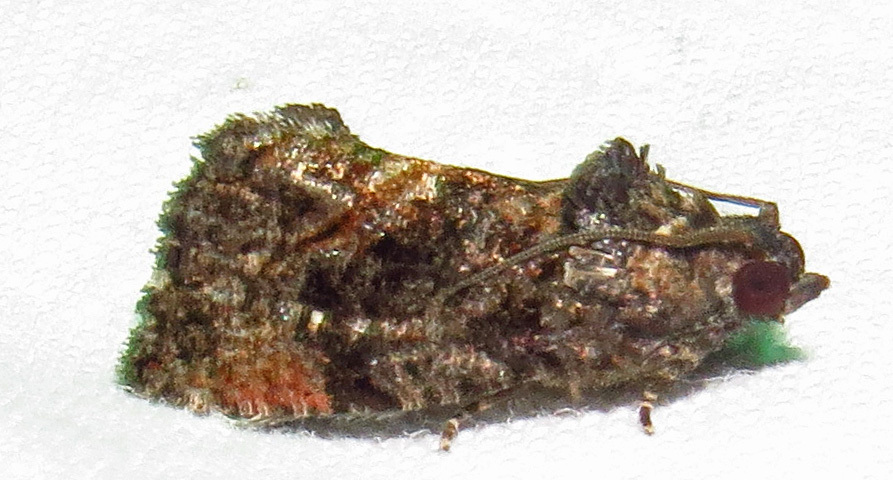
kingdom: Animalia
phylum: Arthropoda
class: Insecta
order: Lepidoptera
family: Tortricidae
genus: Gymnandrosoma
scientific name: Gymnandrosoma punctidiscanum
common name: Dotted ecdytolopha moth
